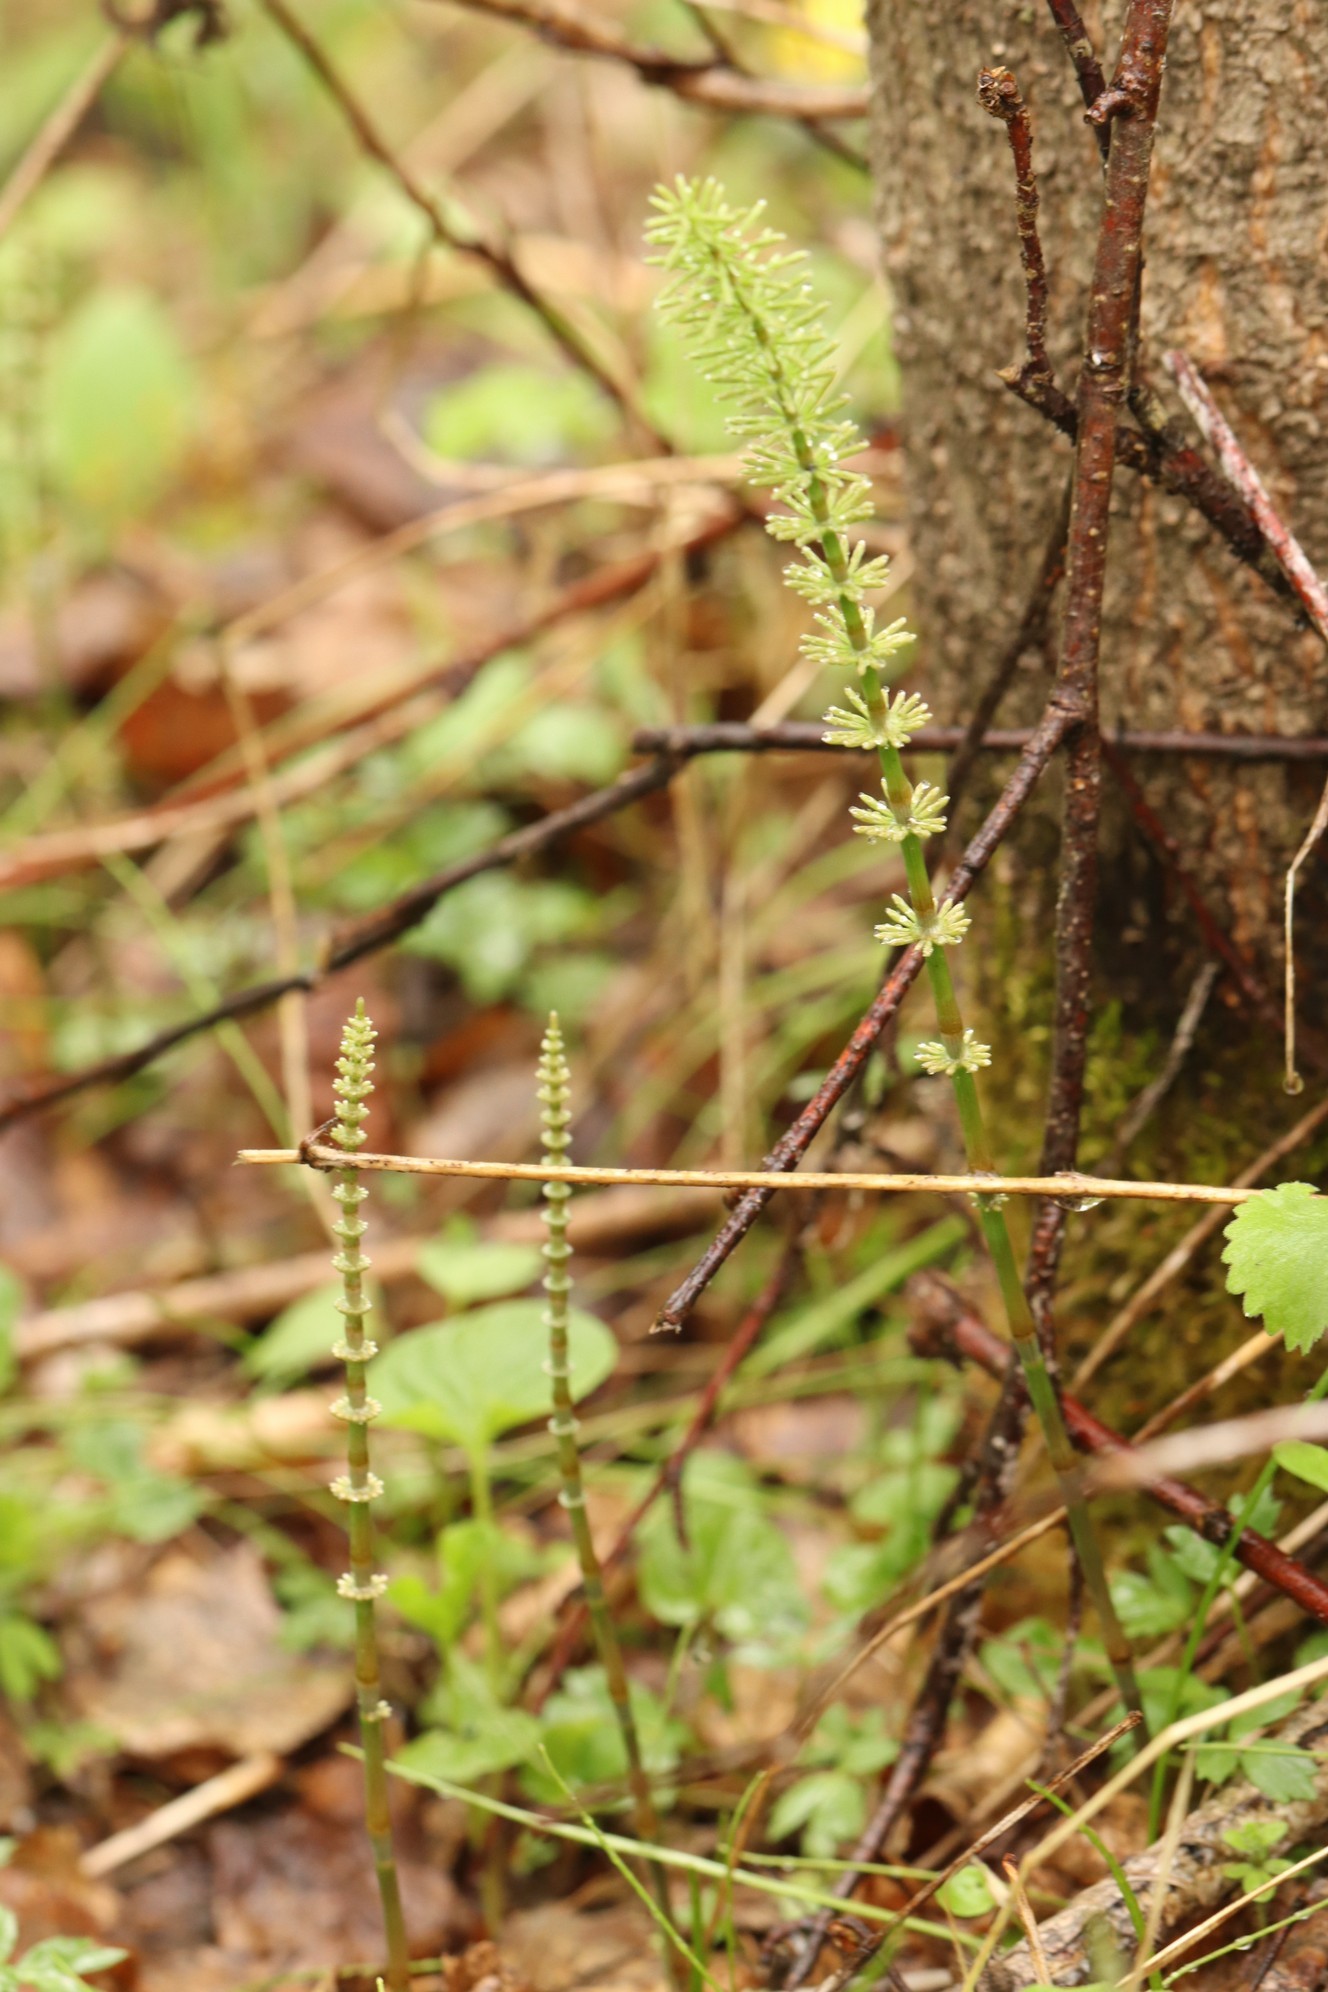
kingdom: Plantae
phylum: Tracheophyta
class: Polypodiopsida
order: Equisetales
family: Equisetaceae
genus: Equisetum
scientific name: Equisetum pratense
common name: Meadow horsetail
